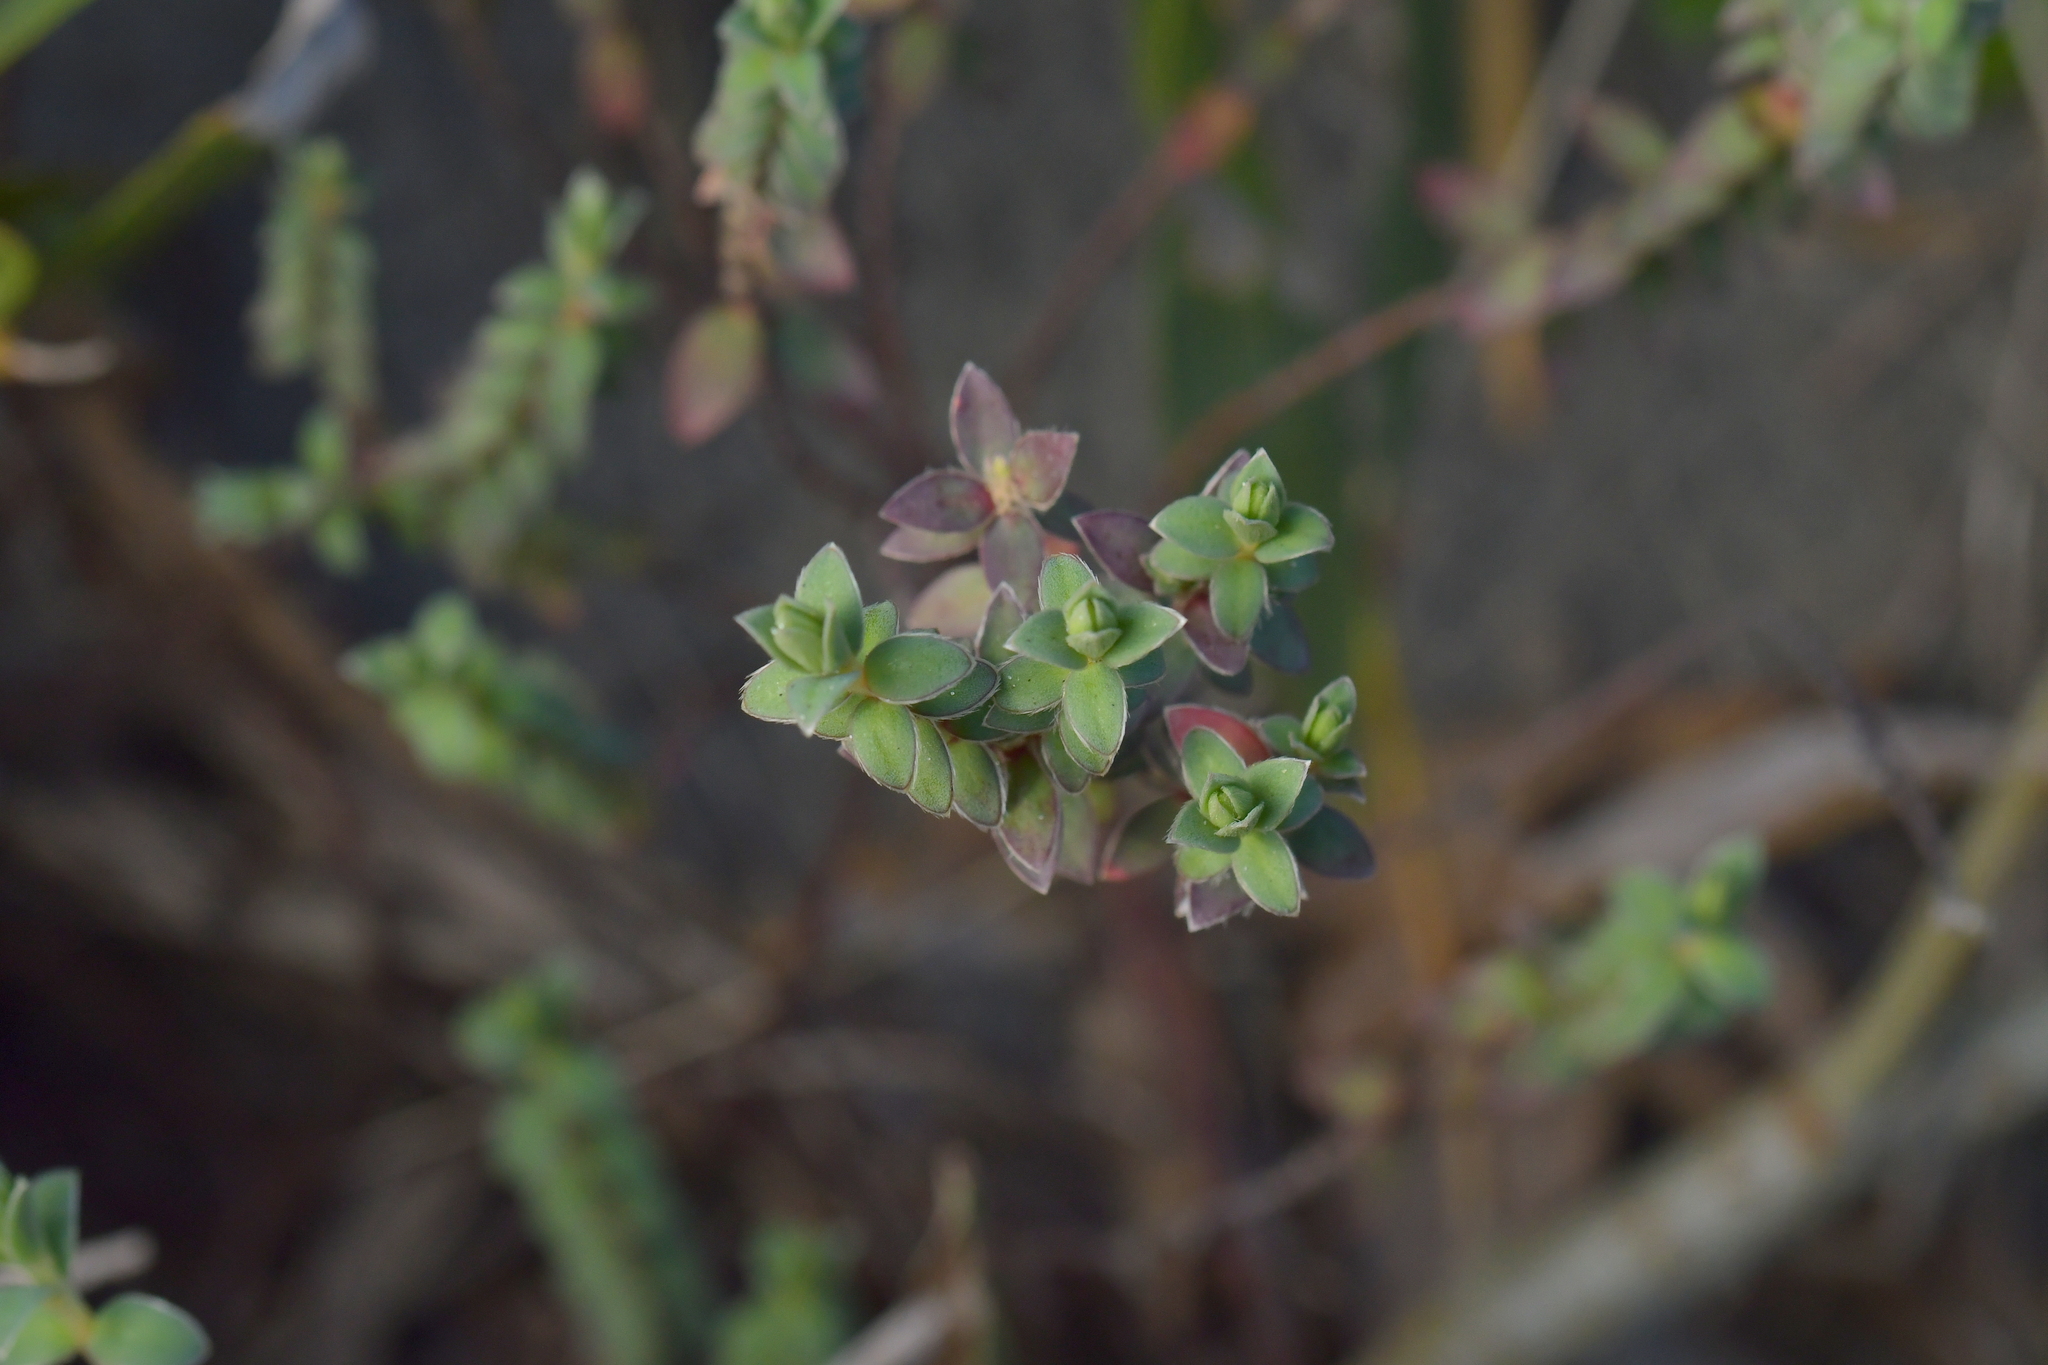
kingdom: Plantae
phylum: Tracheophyta
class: Magnoliopsida
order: Malvales
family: Thymelaeaceae
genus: Pimelea
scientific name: Pimelea villosa
